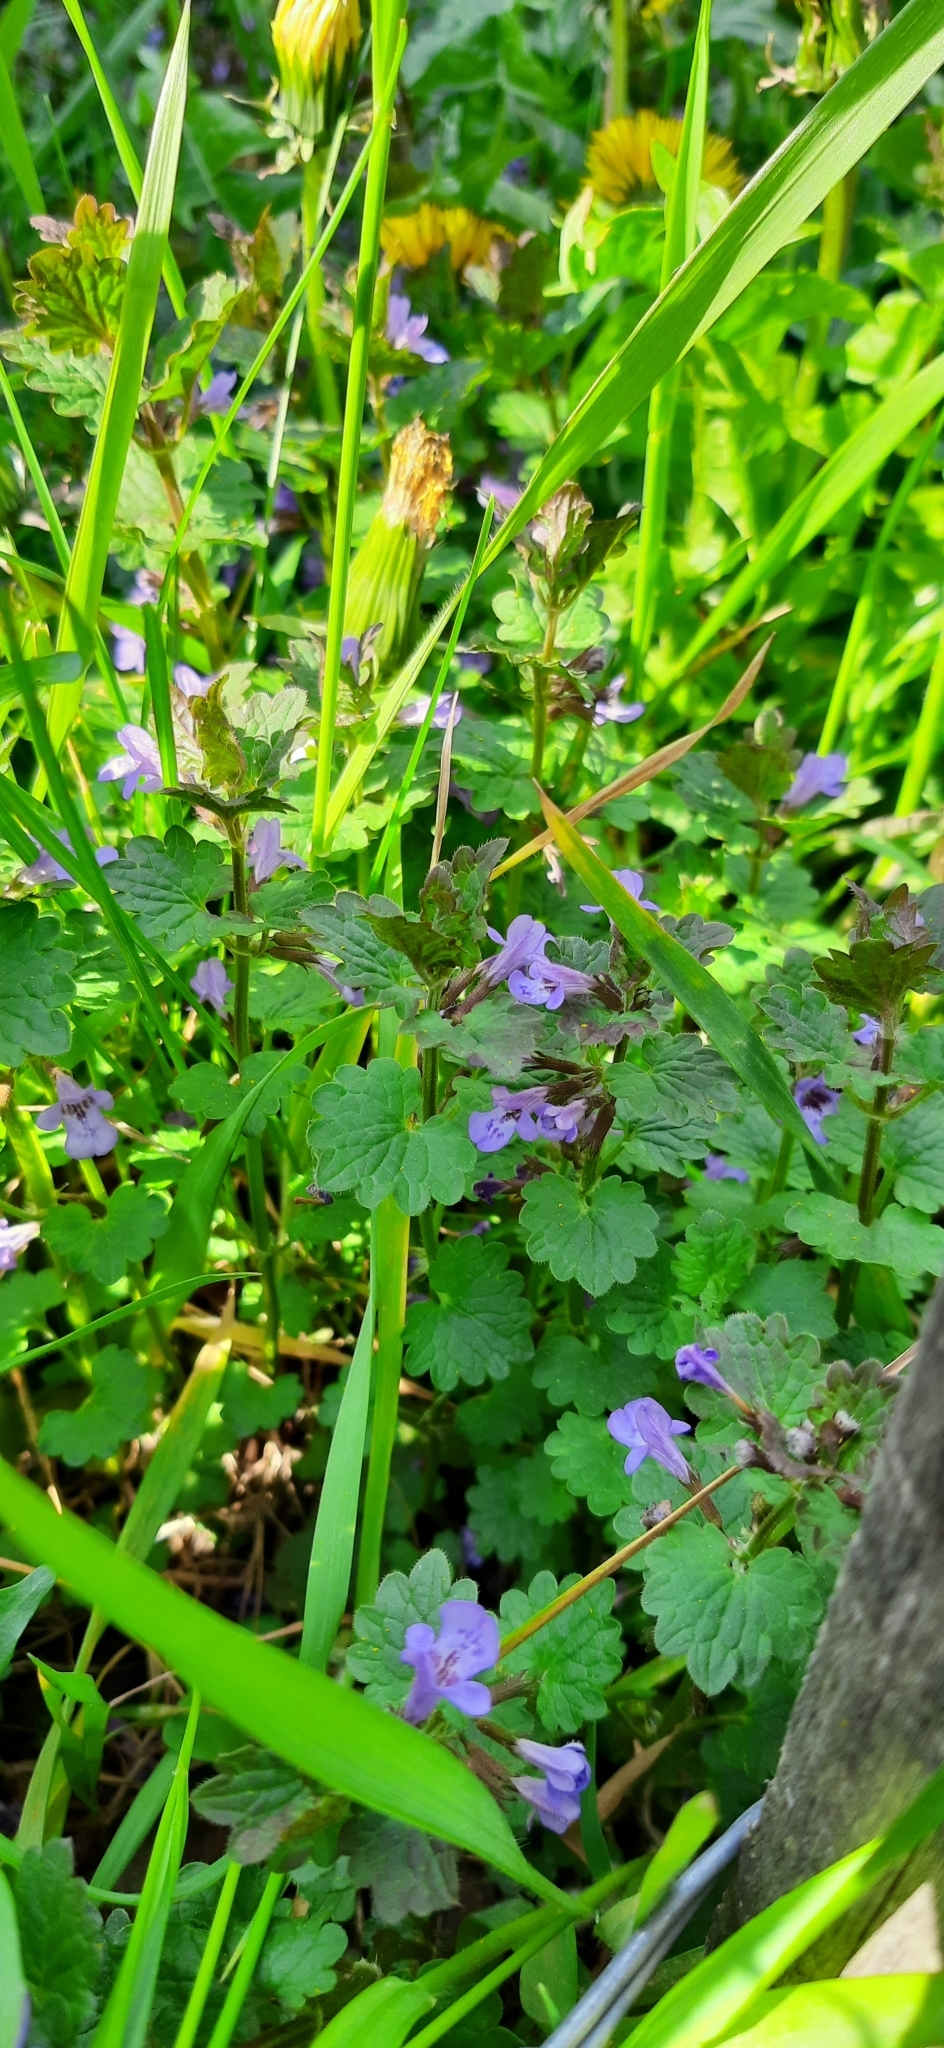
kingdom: Plantae
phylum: Tracheophyta
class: Magnoliopsida
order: Lamiales
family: Lamiaceae
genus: Glechoma
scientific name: Glechoma hederacea
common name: Ground ivy
